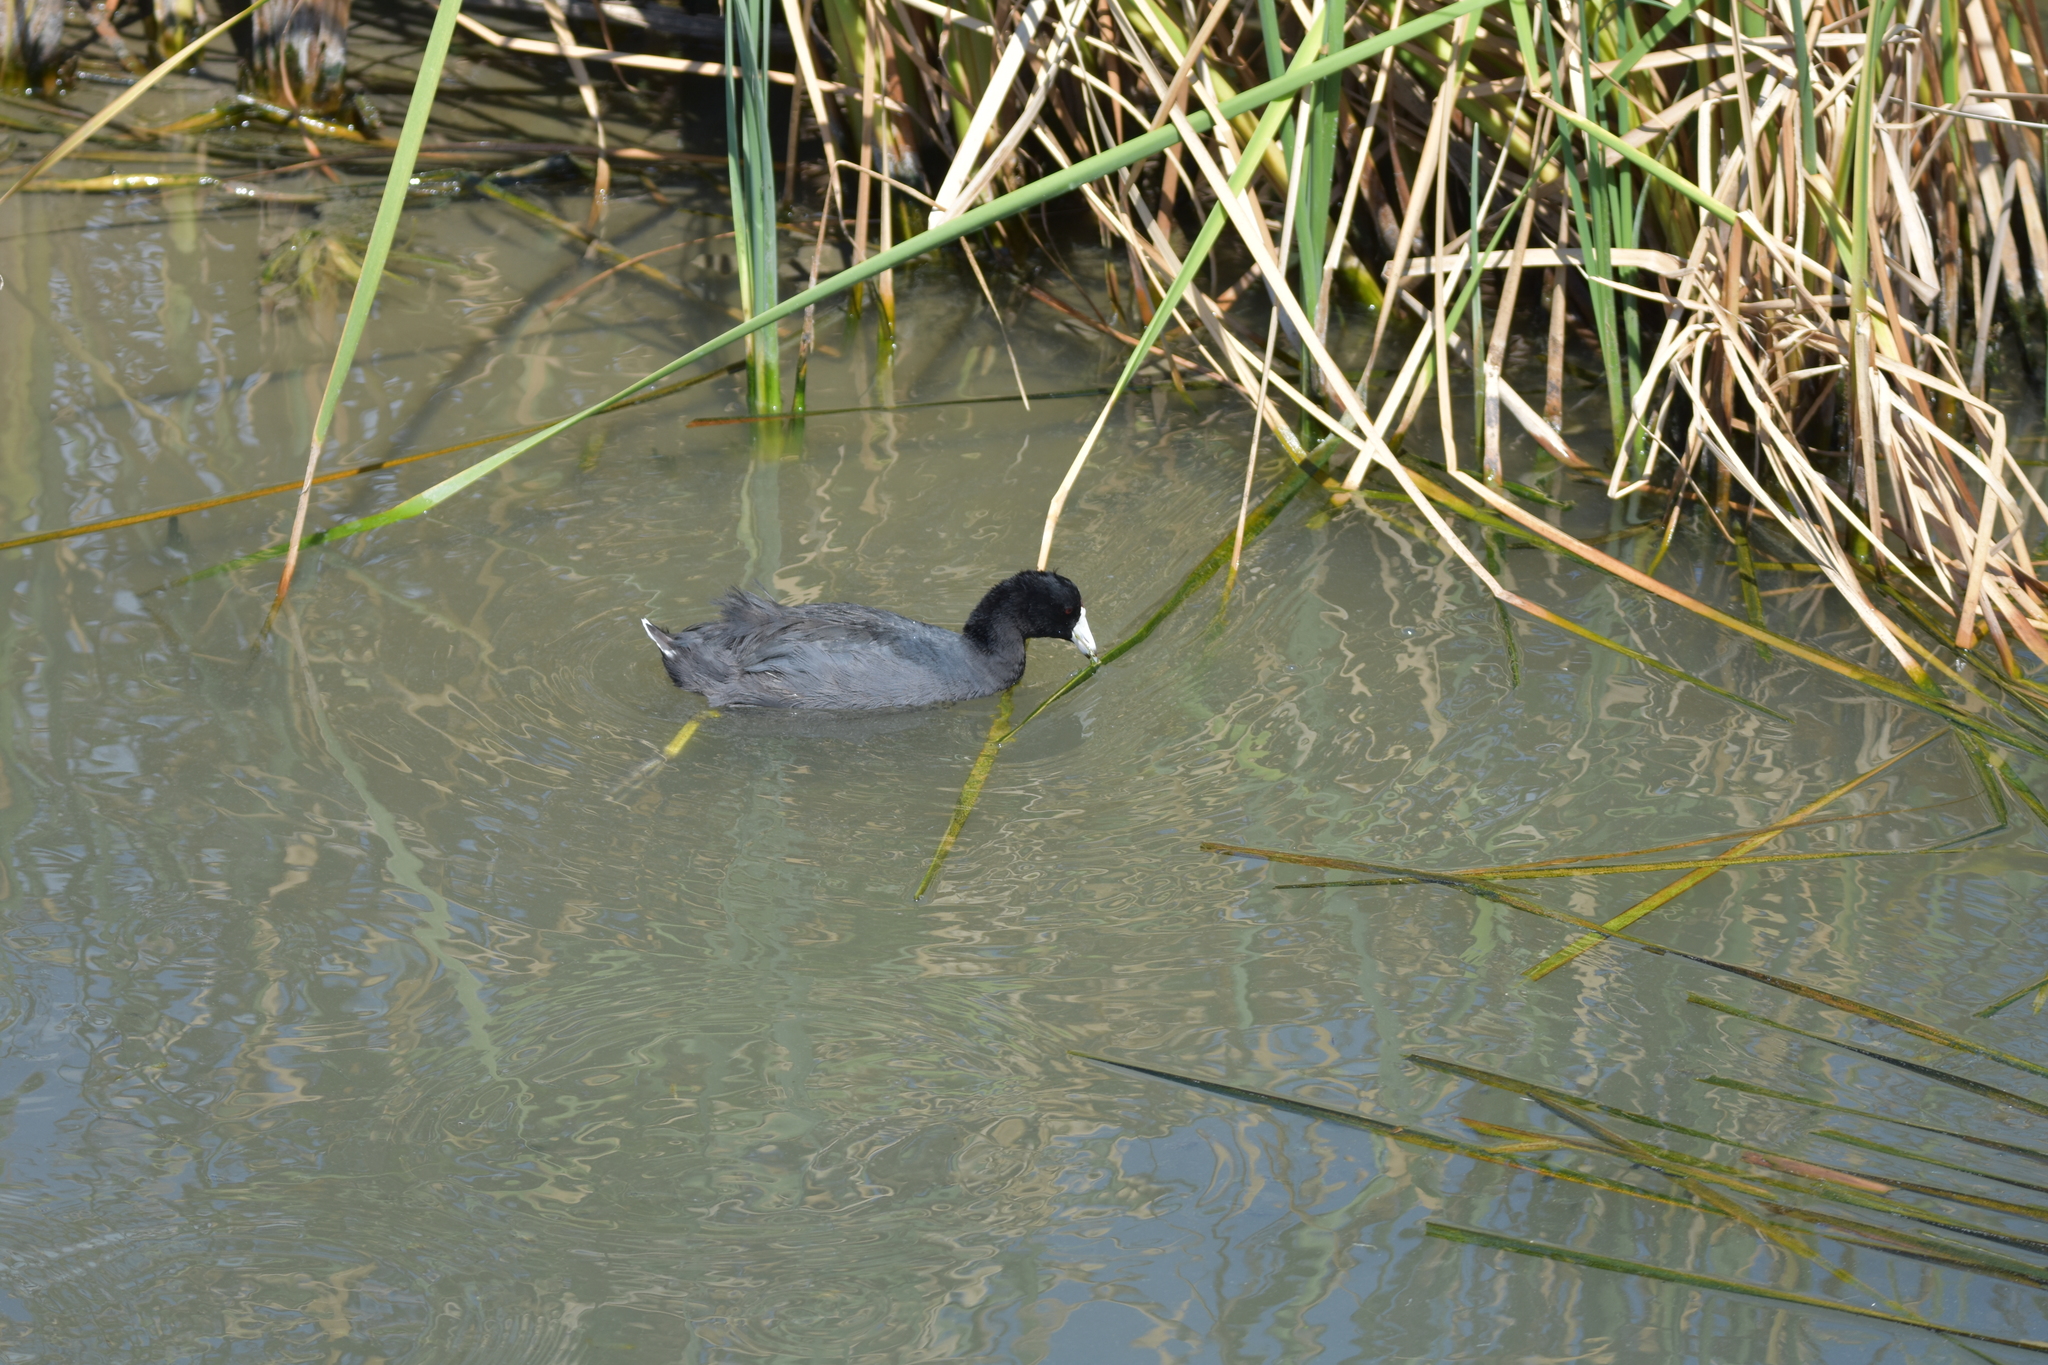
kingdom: Animalia
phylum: Chordata
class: Aves
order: Gruiformes
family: Rallidae
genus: Fulica
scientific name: Fulica americana
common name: American coot
